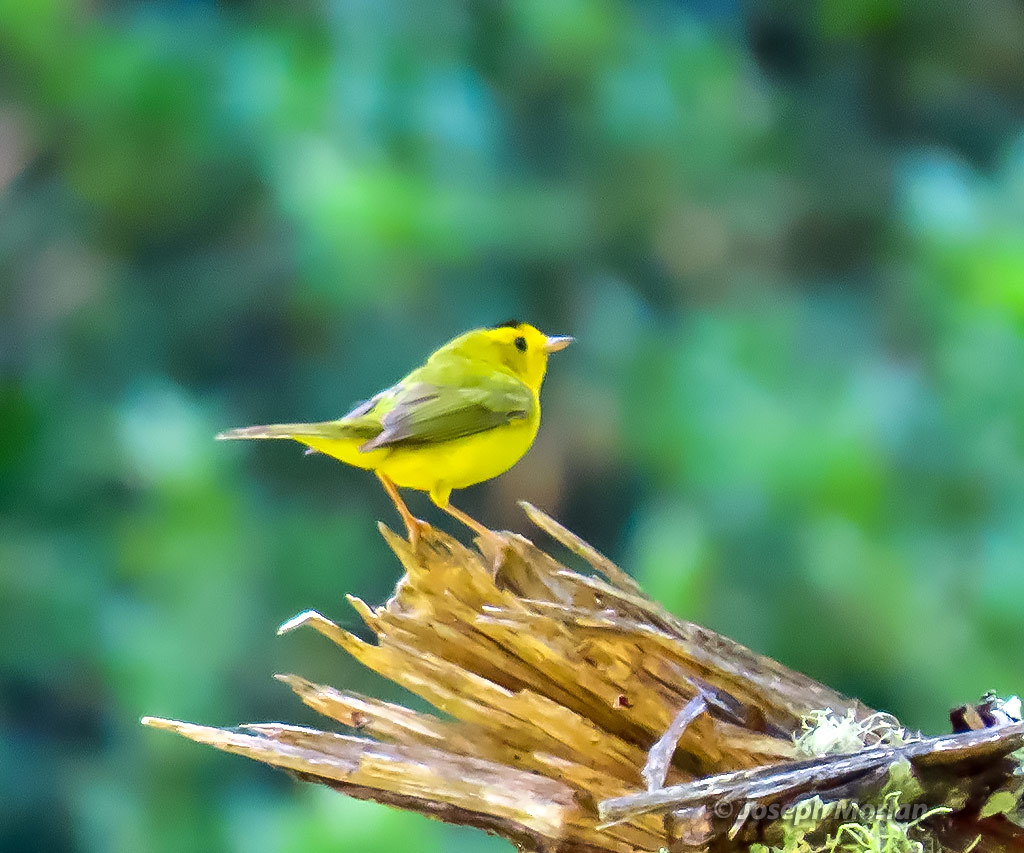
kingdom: Animalia
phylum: Chordata
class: Aves
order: Passeriformes
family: Parulidae
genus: Cardellina
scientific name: Cardellina pusilla
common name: Wilson's warbler
